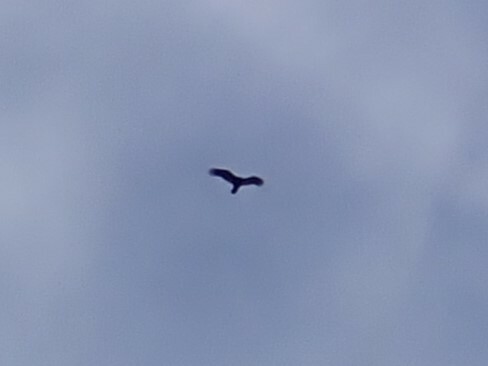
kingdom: Animalia
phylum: Chordata
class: Aves
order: Accipitriformes
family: Cathartidae
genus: Cathartes
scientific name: Cathartes aura
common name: Turkey vulture
